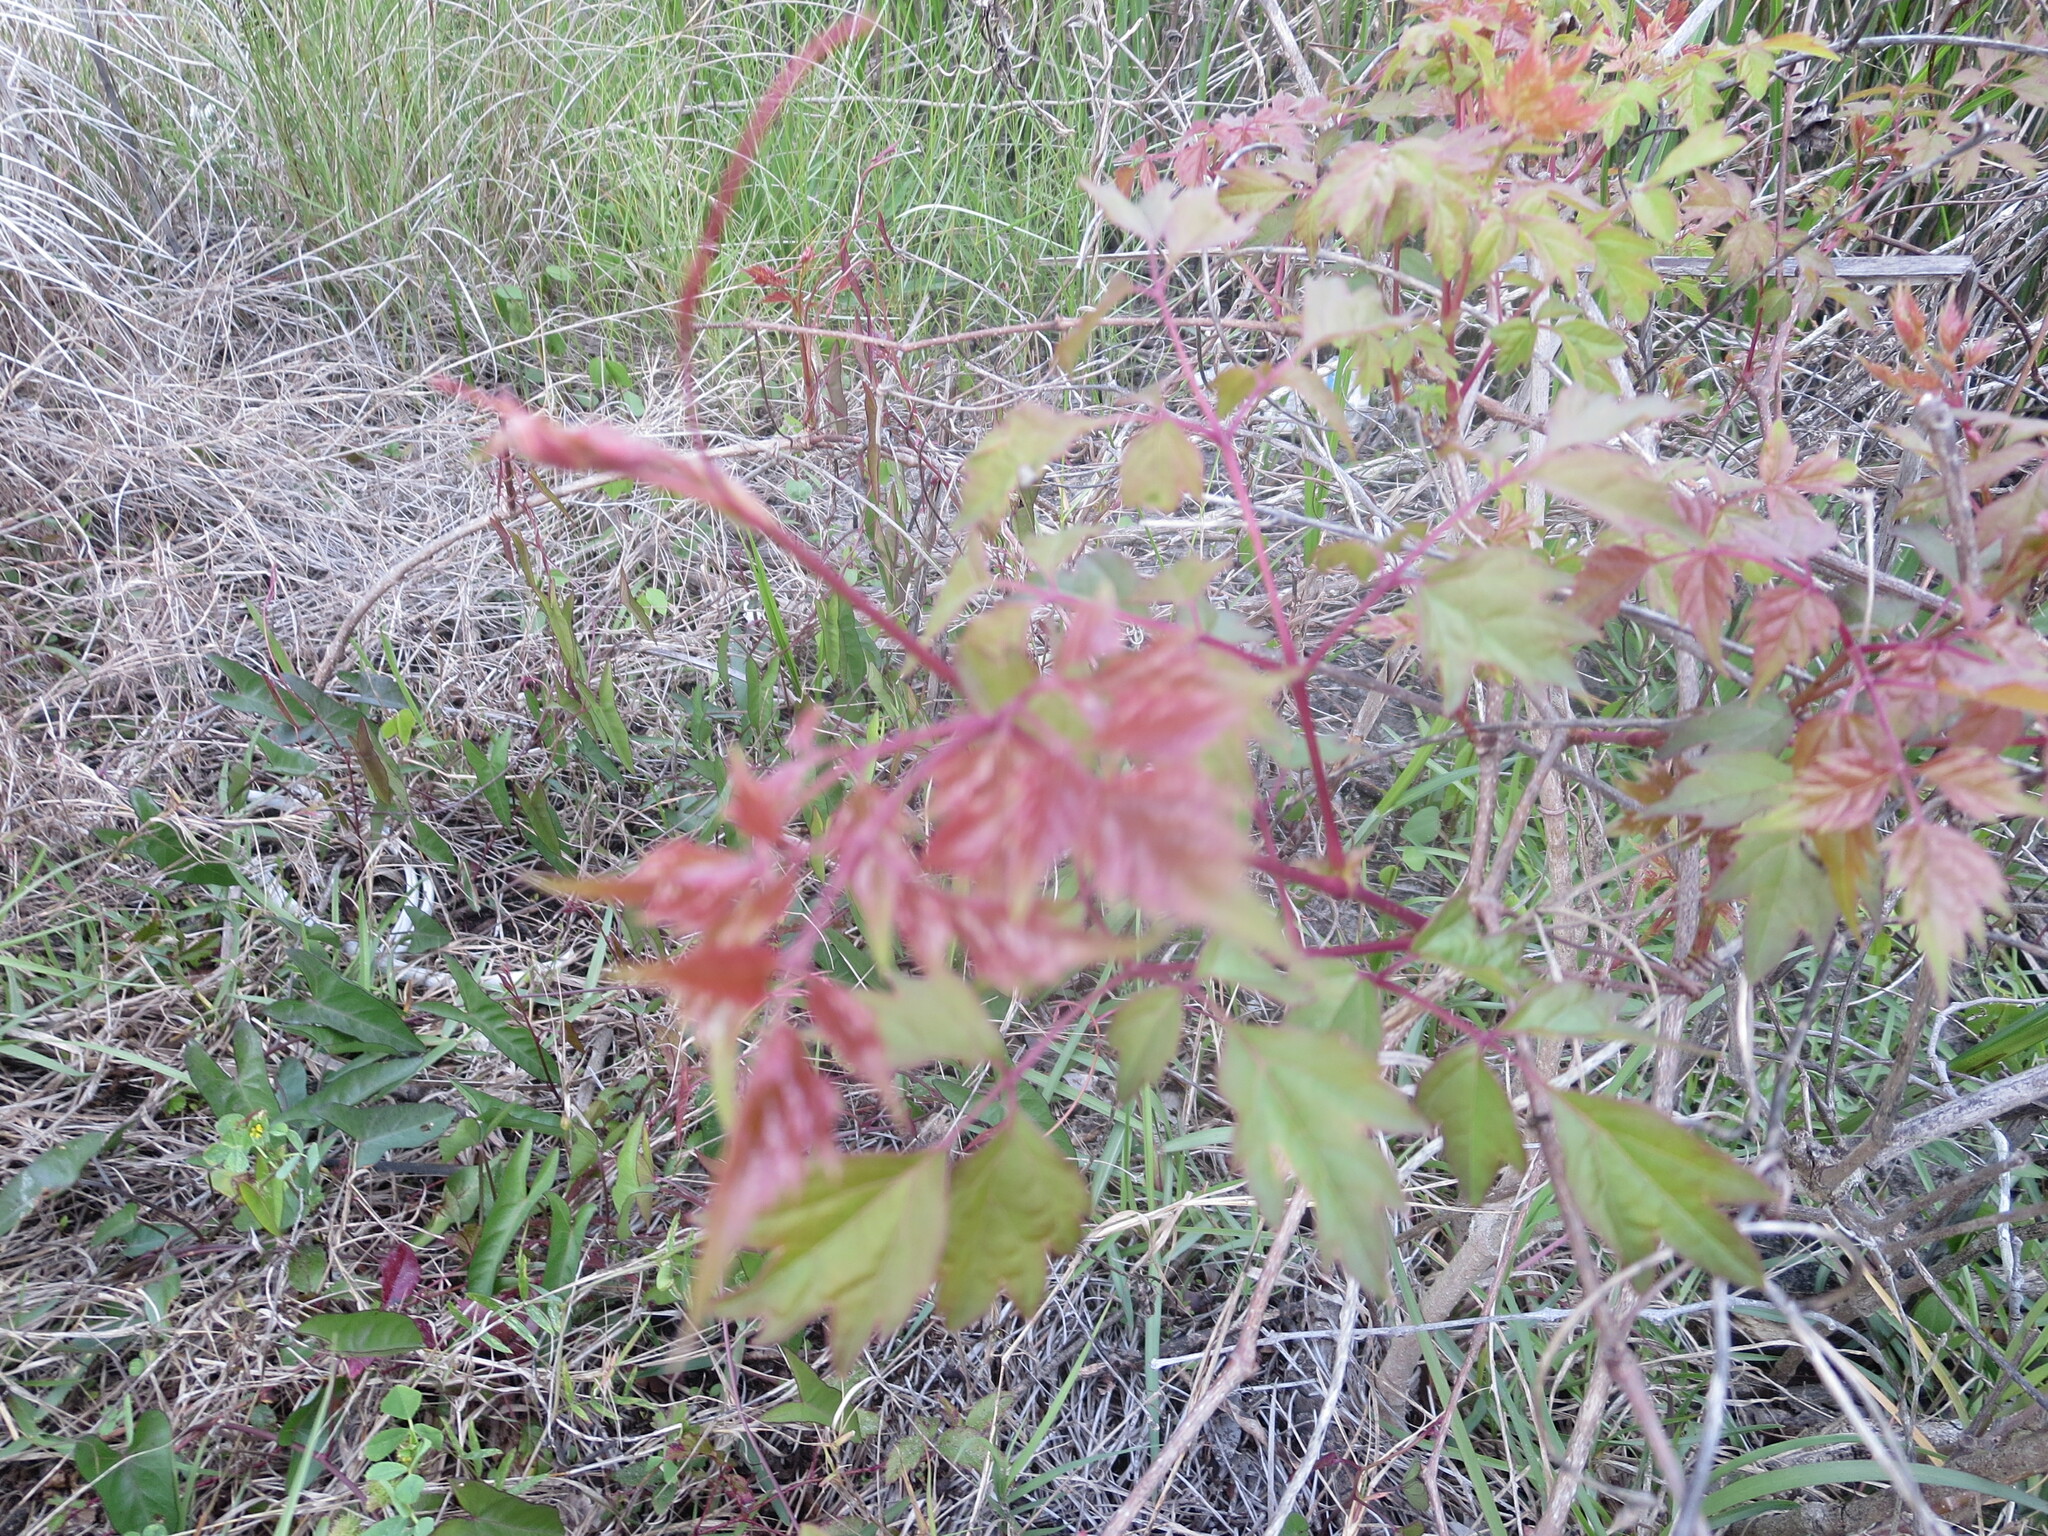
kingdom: Plantae
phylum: Tracheophyta
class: Magnoliopsida
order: Vitales
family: Vitaceae
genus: Nekemias
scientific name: Nekemias arborea
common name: Peppervine
